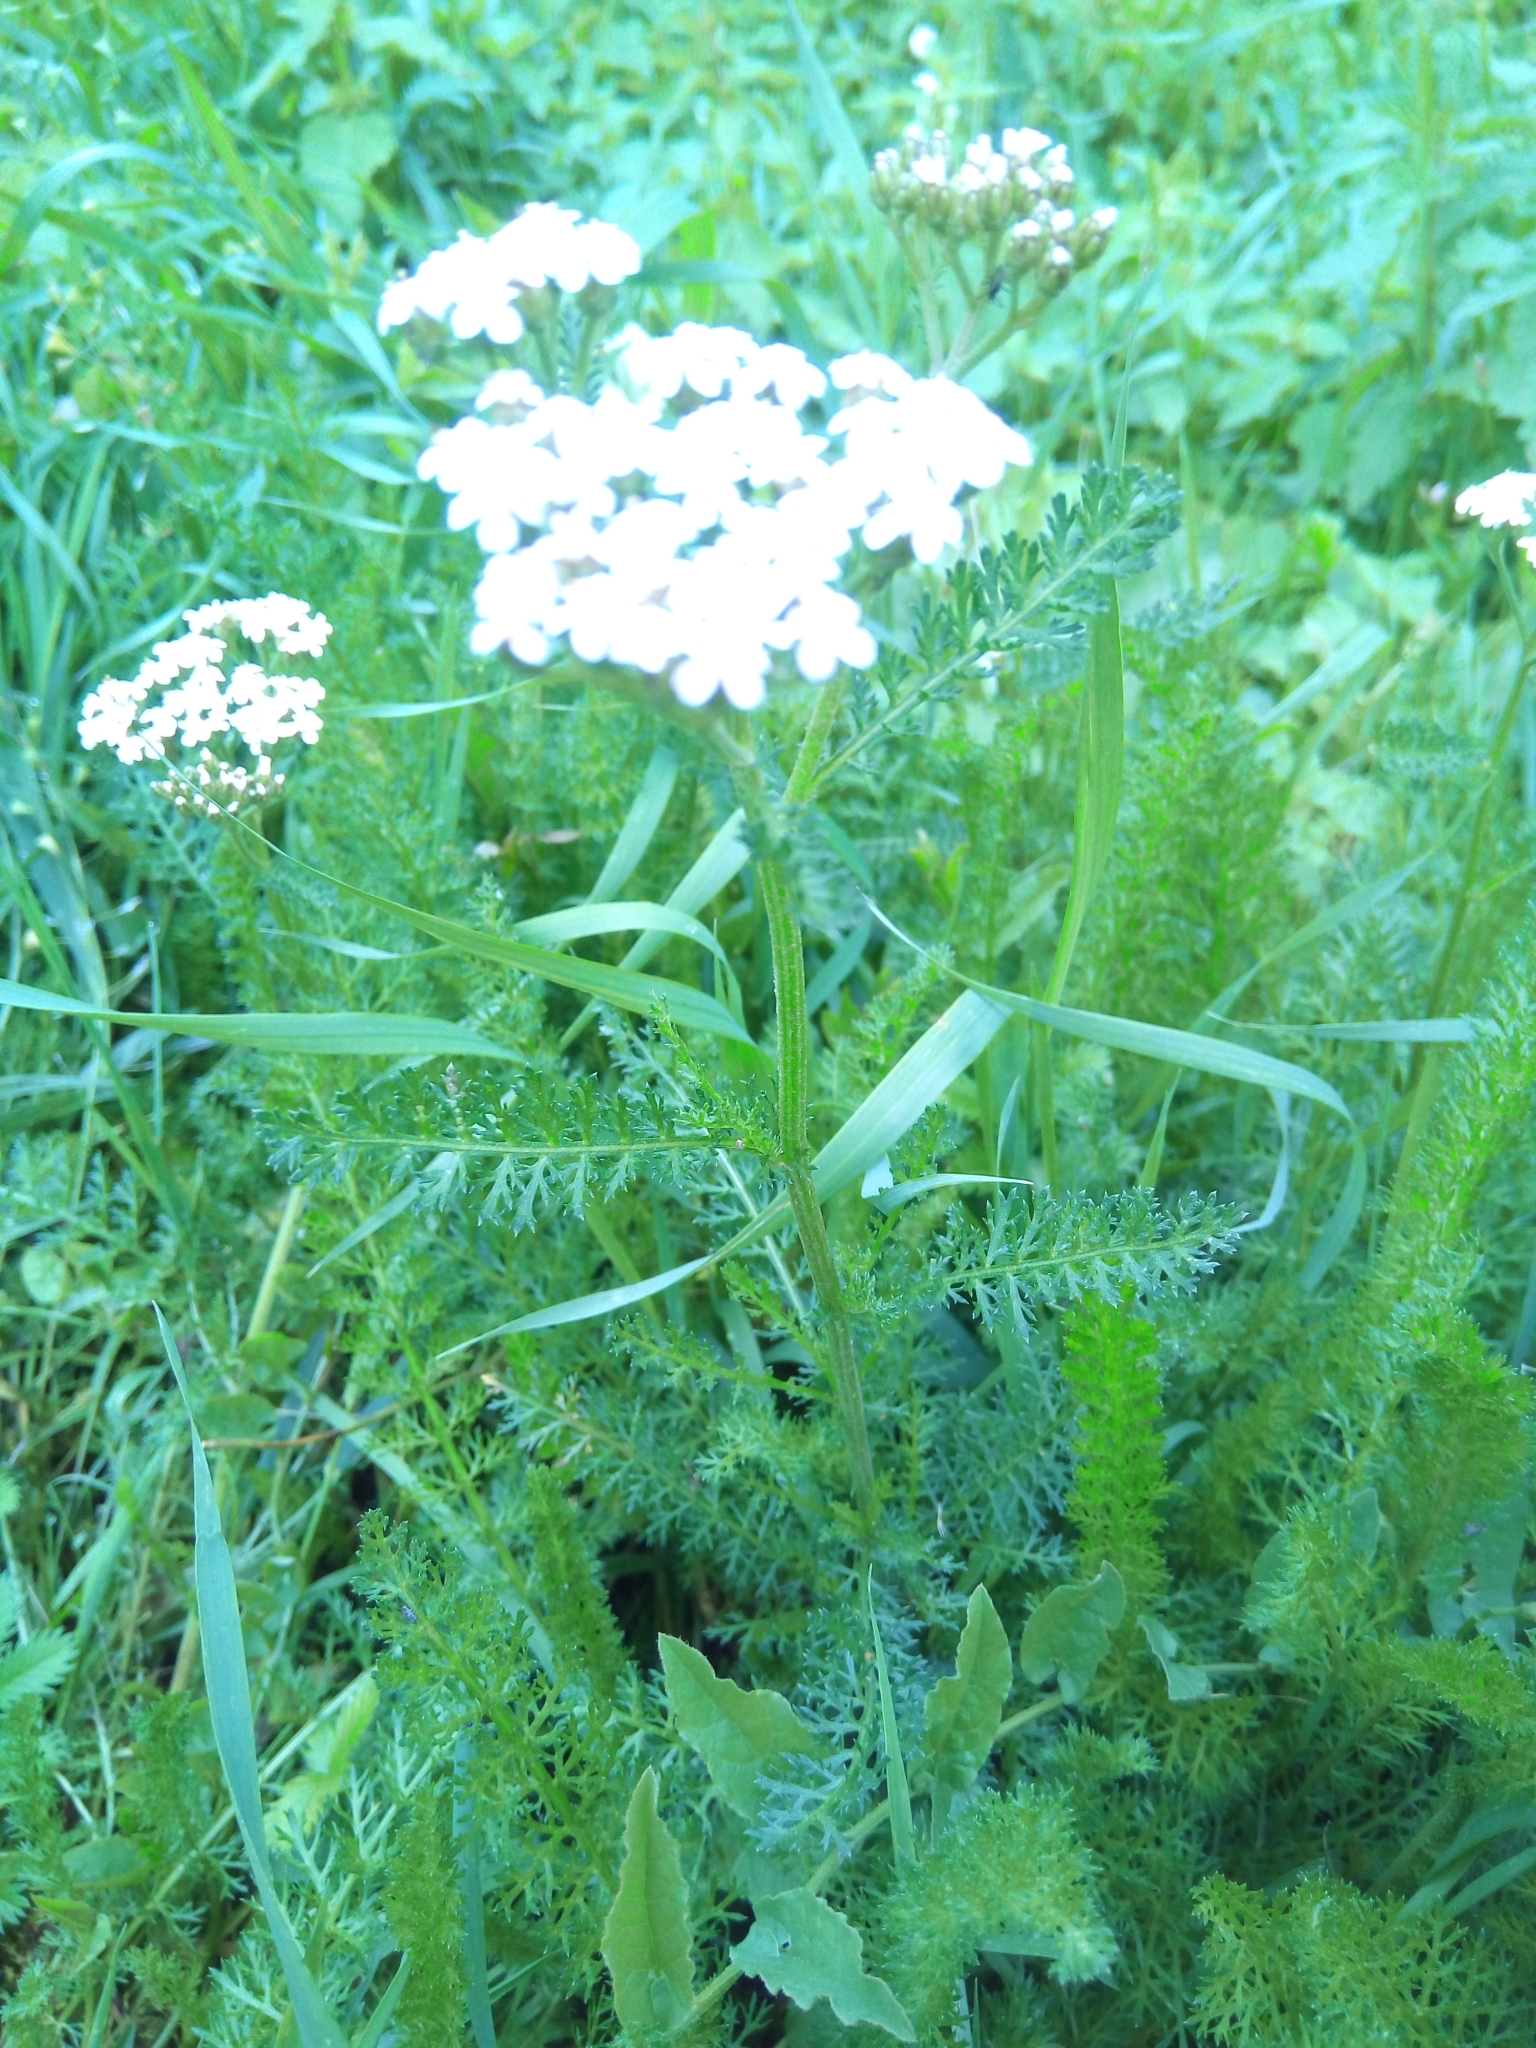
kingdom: Plantae
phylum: Tracheophyta
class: Magnoliopsida
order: Asterales
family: Asteraceae
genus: Achillea
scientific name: Achillea millefolium
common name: Yarrow
